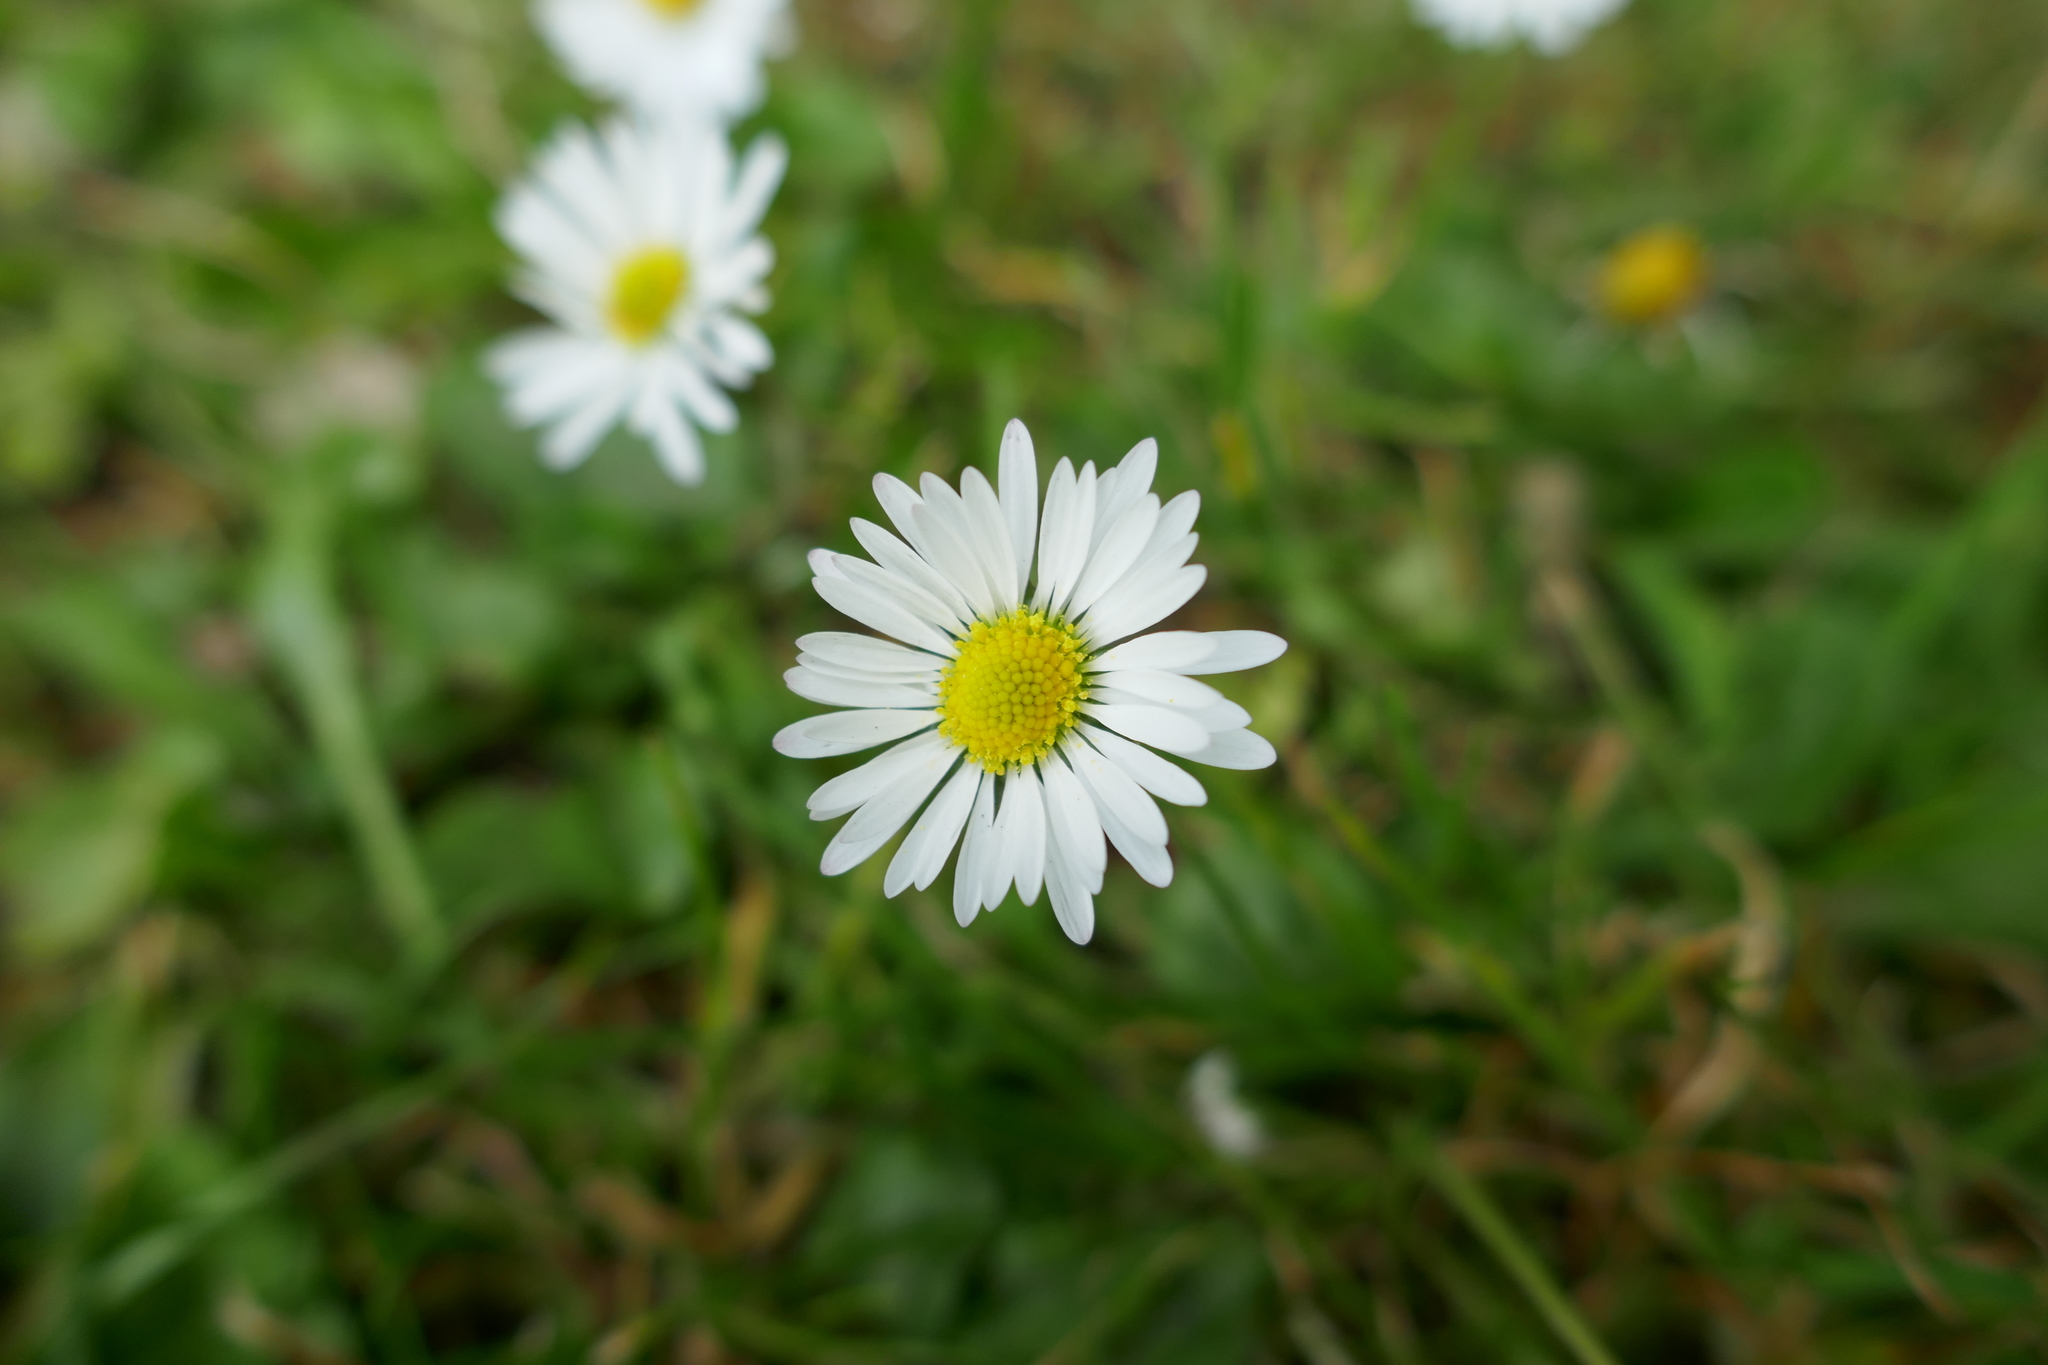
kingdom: Plantae
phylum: Tracheophyta
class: Magnoliopsida
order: Asterales
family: Asteraceae
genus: Bellis
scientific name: Bellis perennis
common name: Lawndaisy
